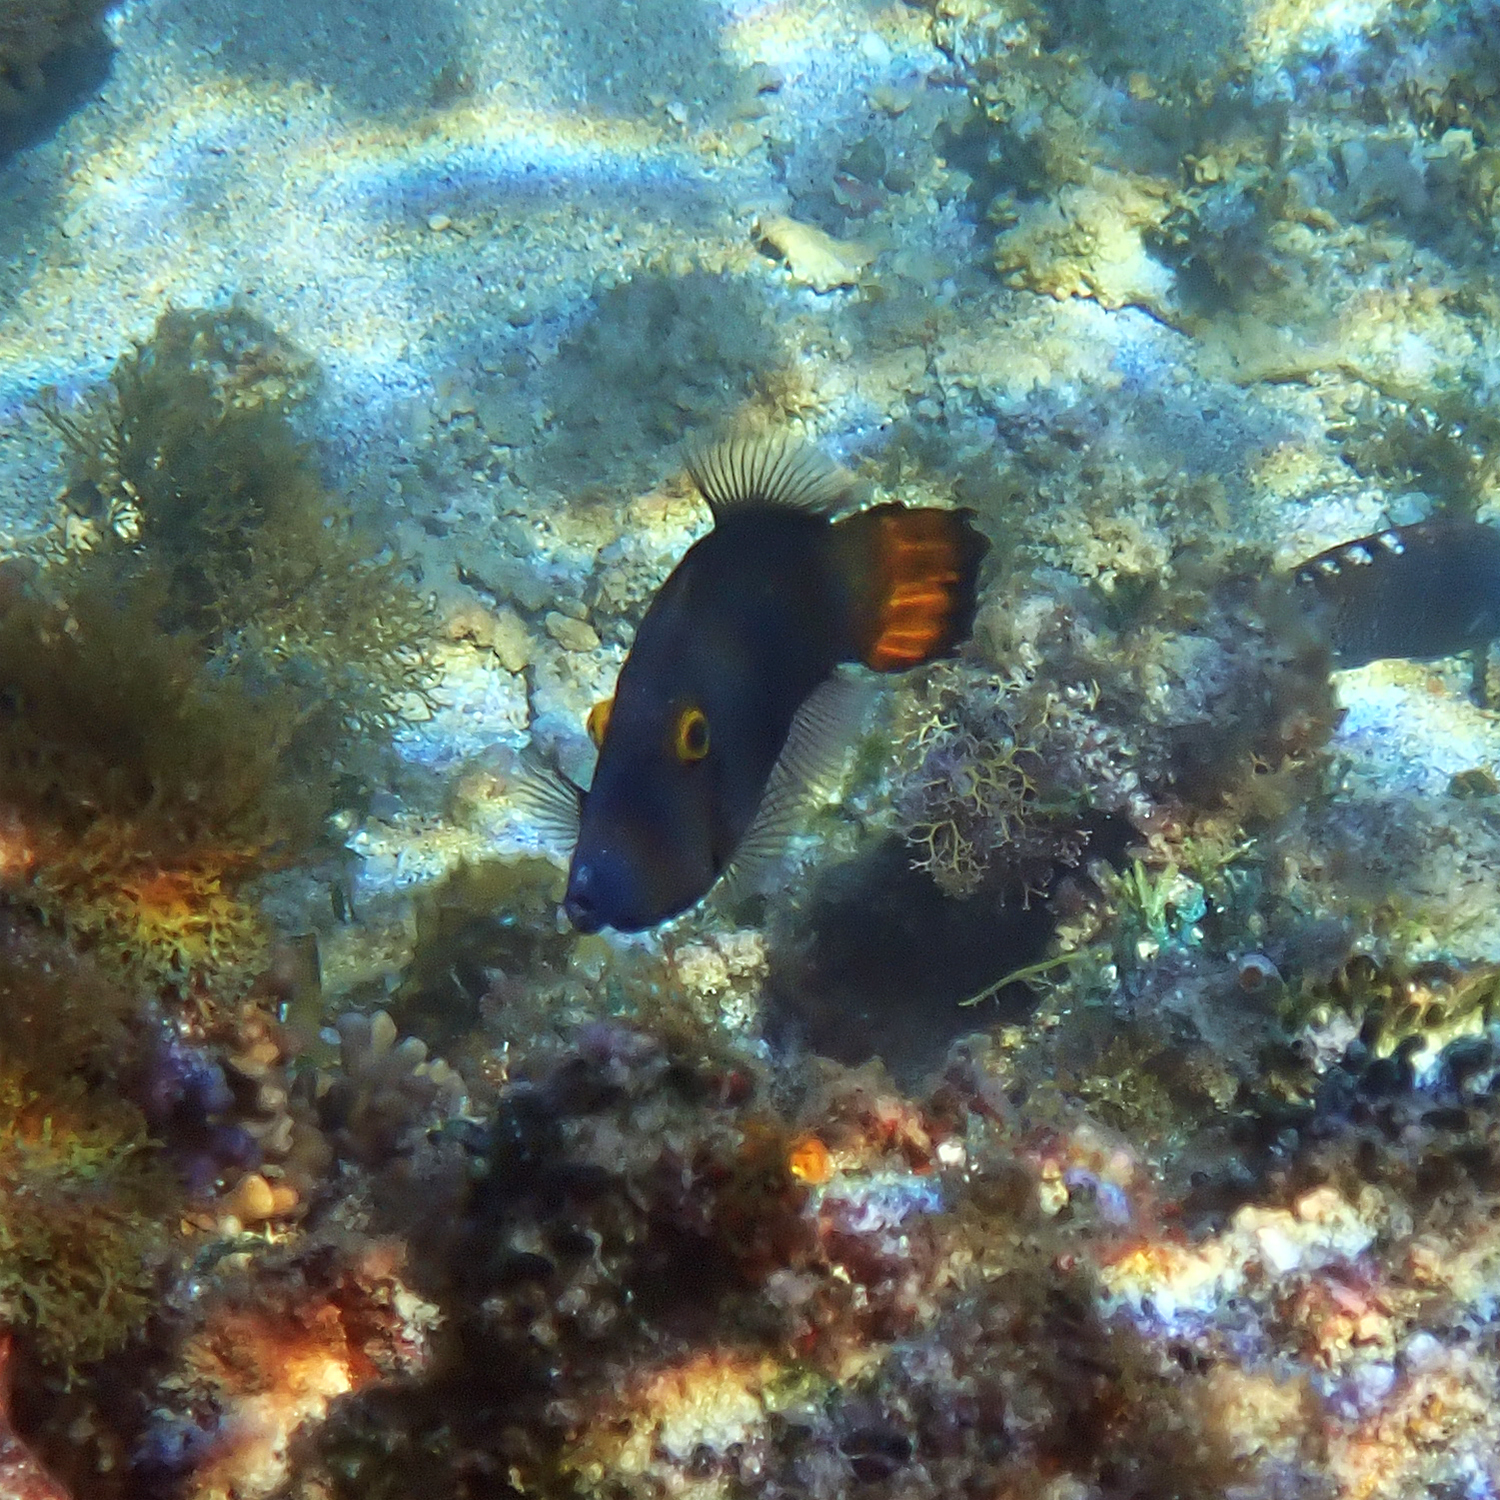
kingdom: Animalia
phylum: Chordata
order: Tetraodontiformes
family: Monacanthidae
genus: Pervagor
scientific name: Pervagor alternans
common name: Yelloweye filefish
